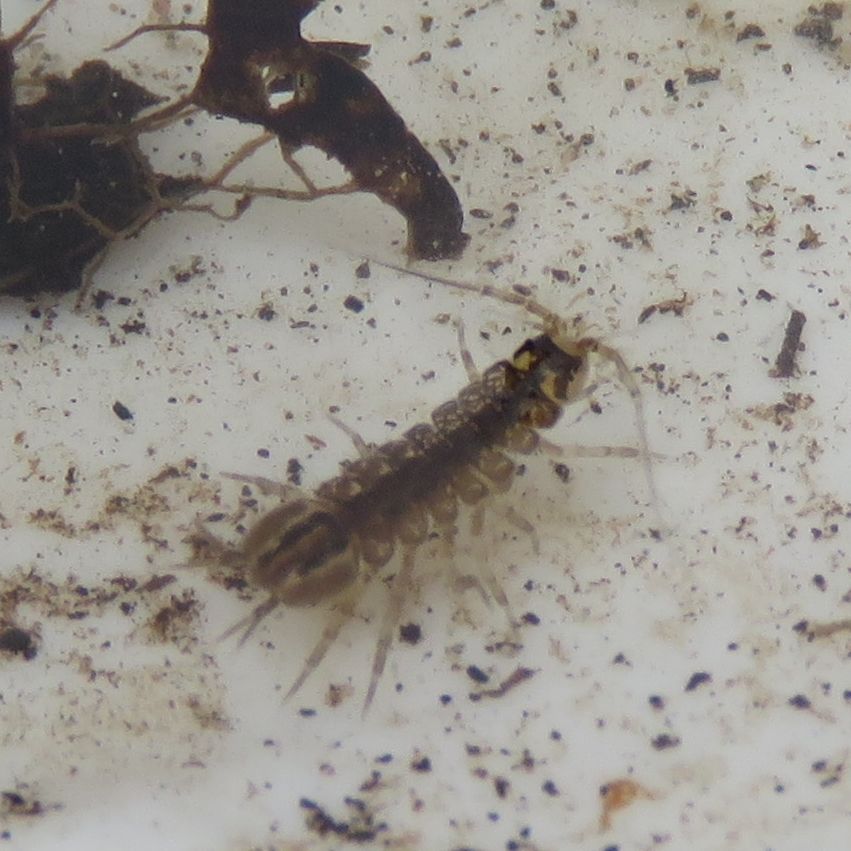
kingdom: Animalia
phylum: Arthropoda
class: Malacostraca
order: Isopoda
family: Asellidae
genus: Asellus
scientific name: Asellus aquaticus
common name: Water hog lice/slaters
